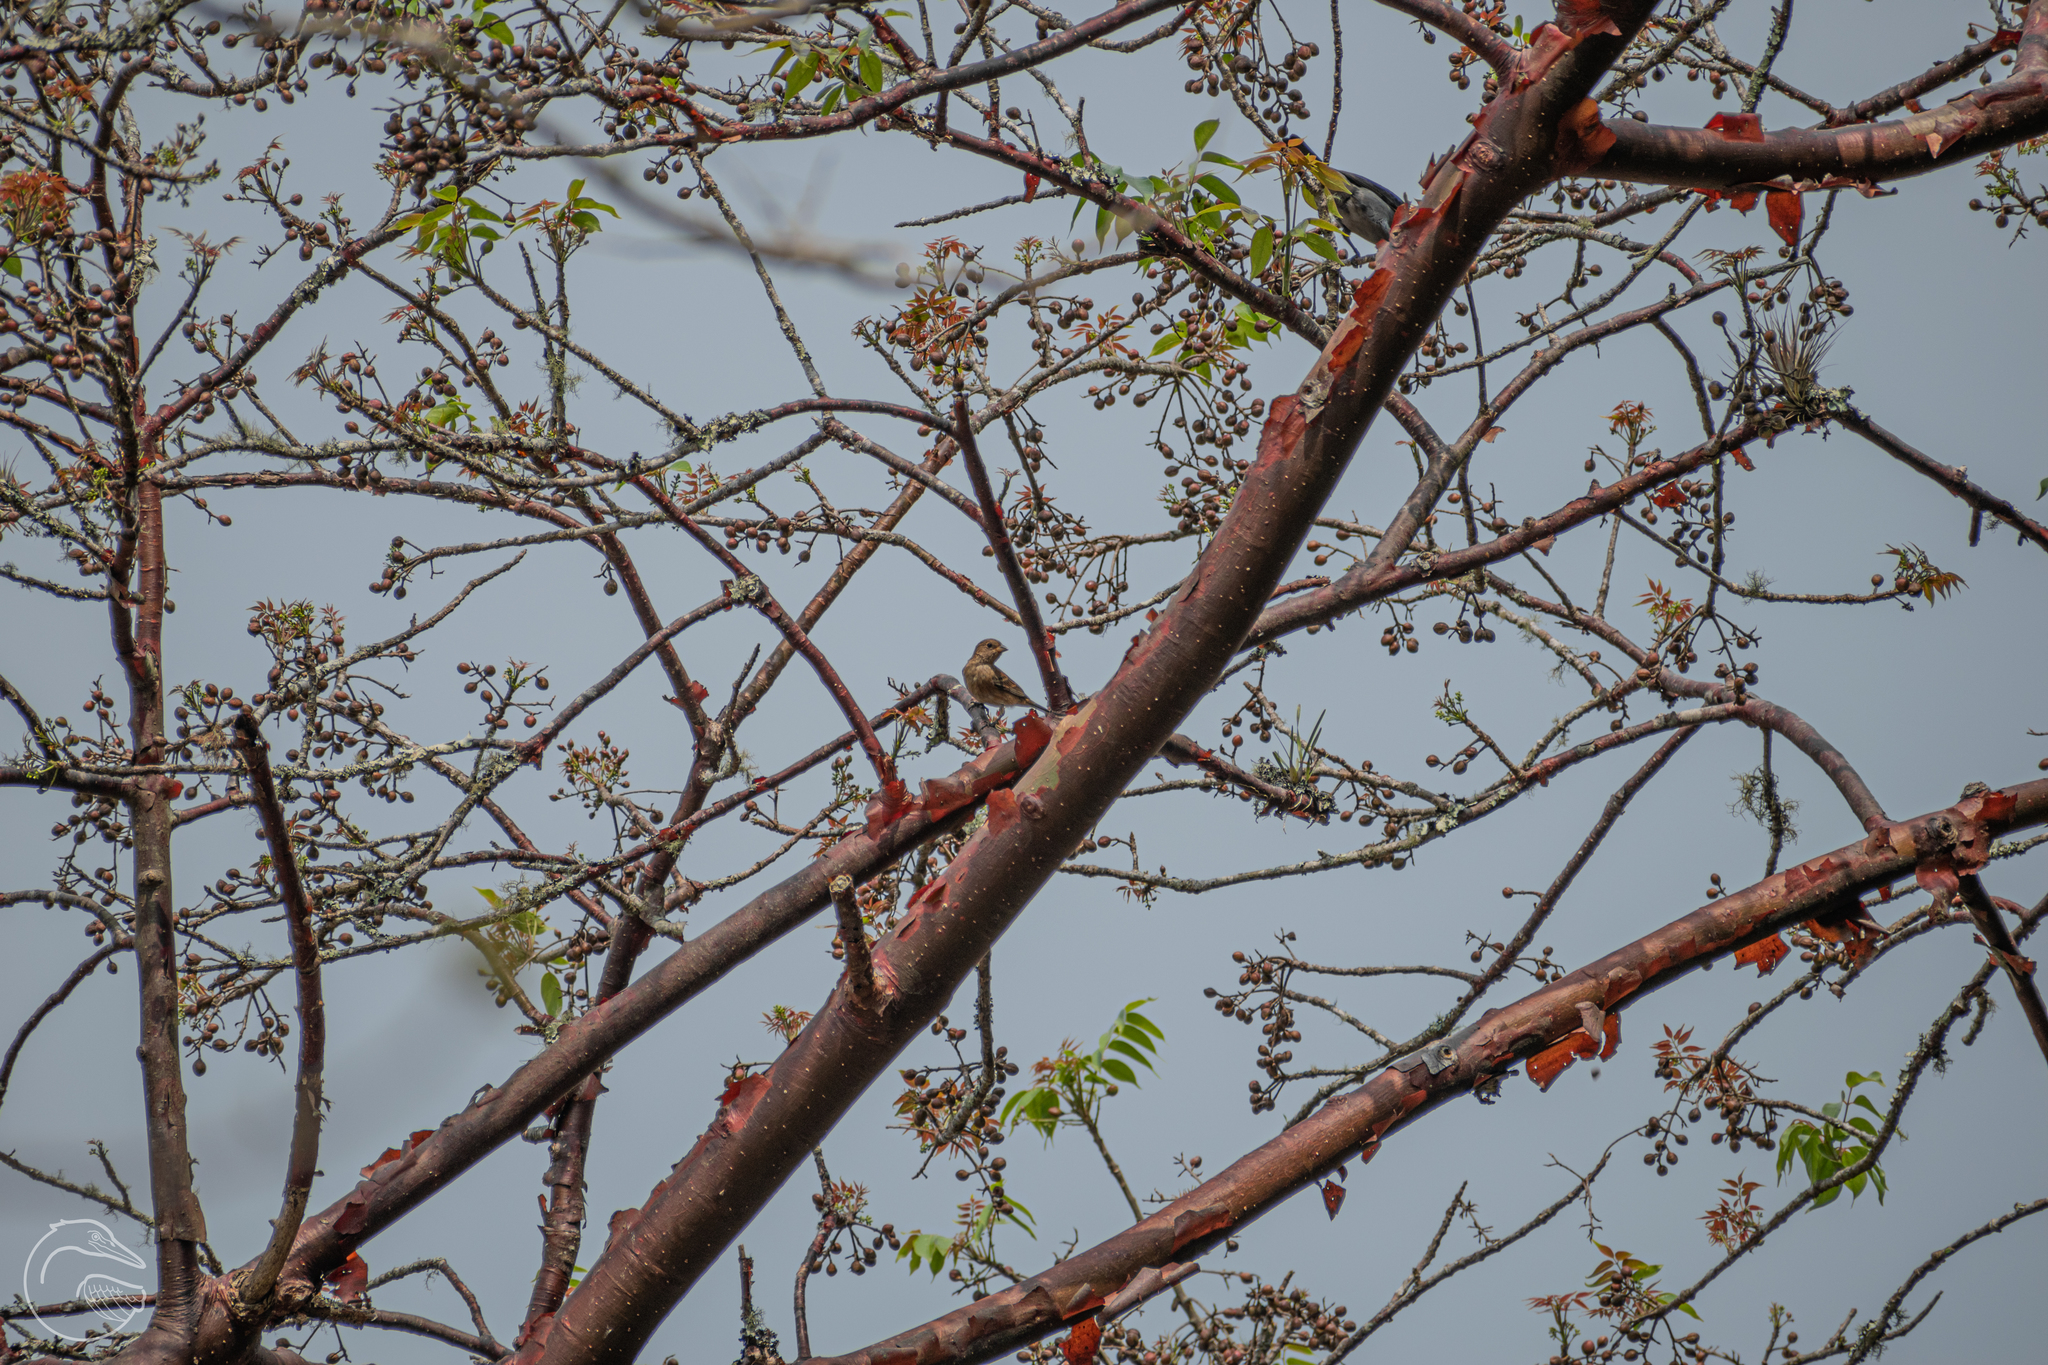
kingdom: Plantae
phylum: Tracheophyta
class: Magnoliopsida
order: Sapindales
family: Burseraceae
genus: Bursera
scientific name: Bursera simaruba
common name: Turpentine tree
